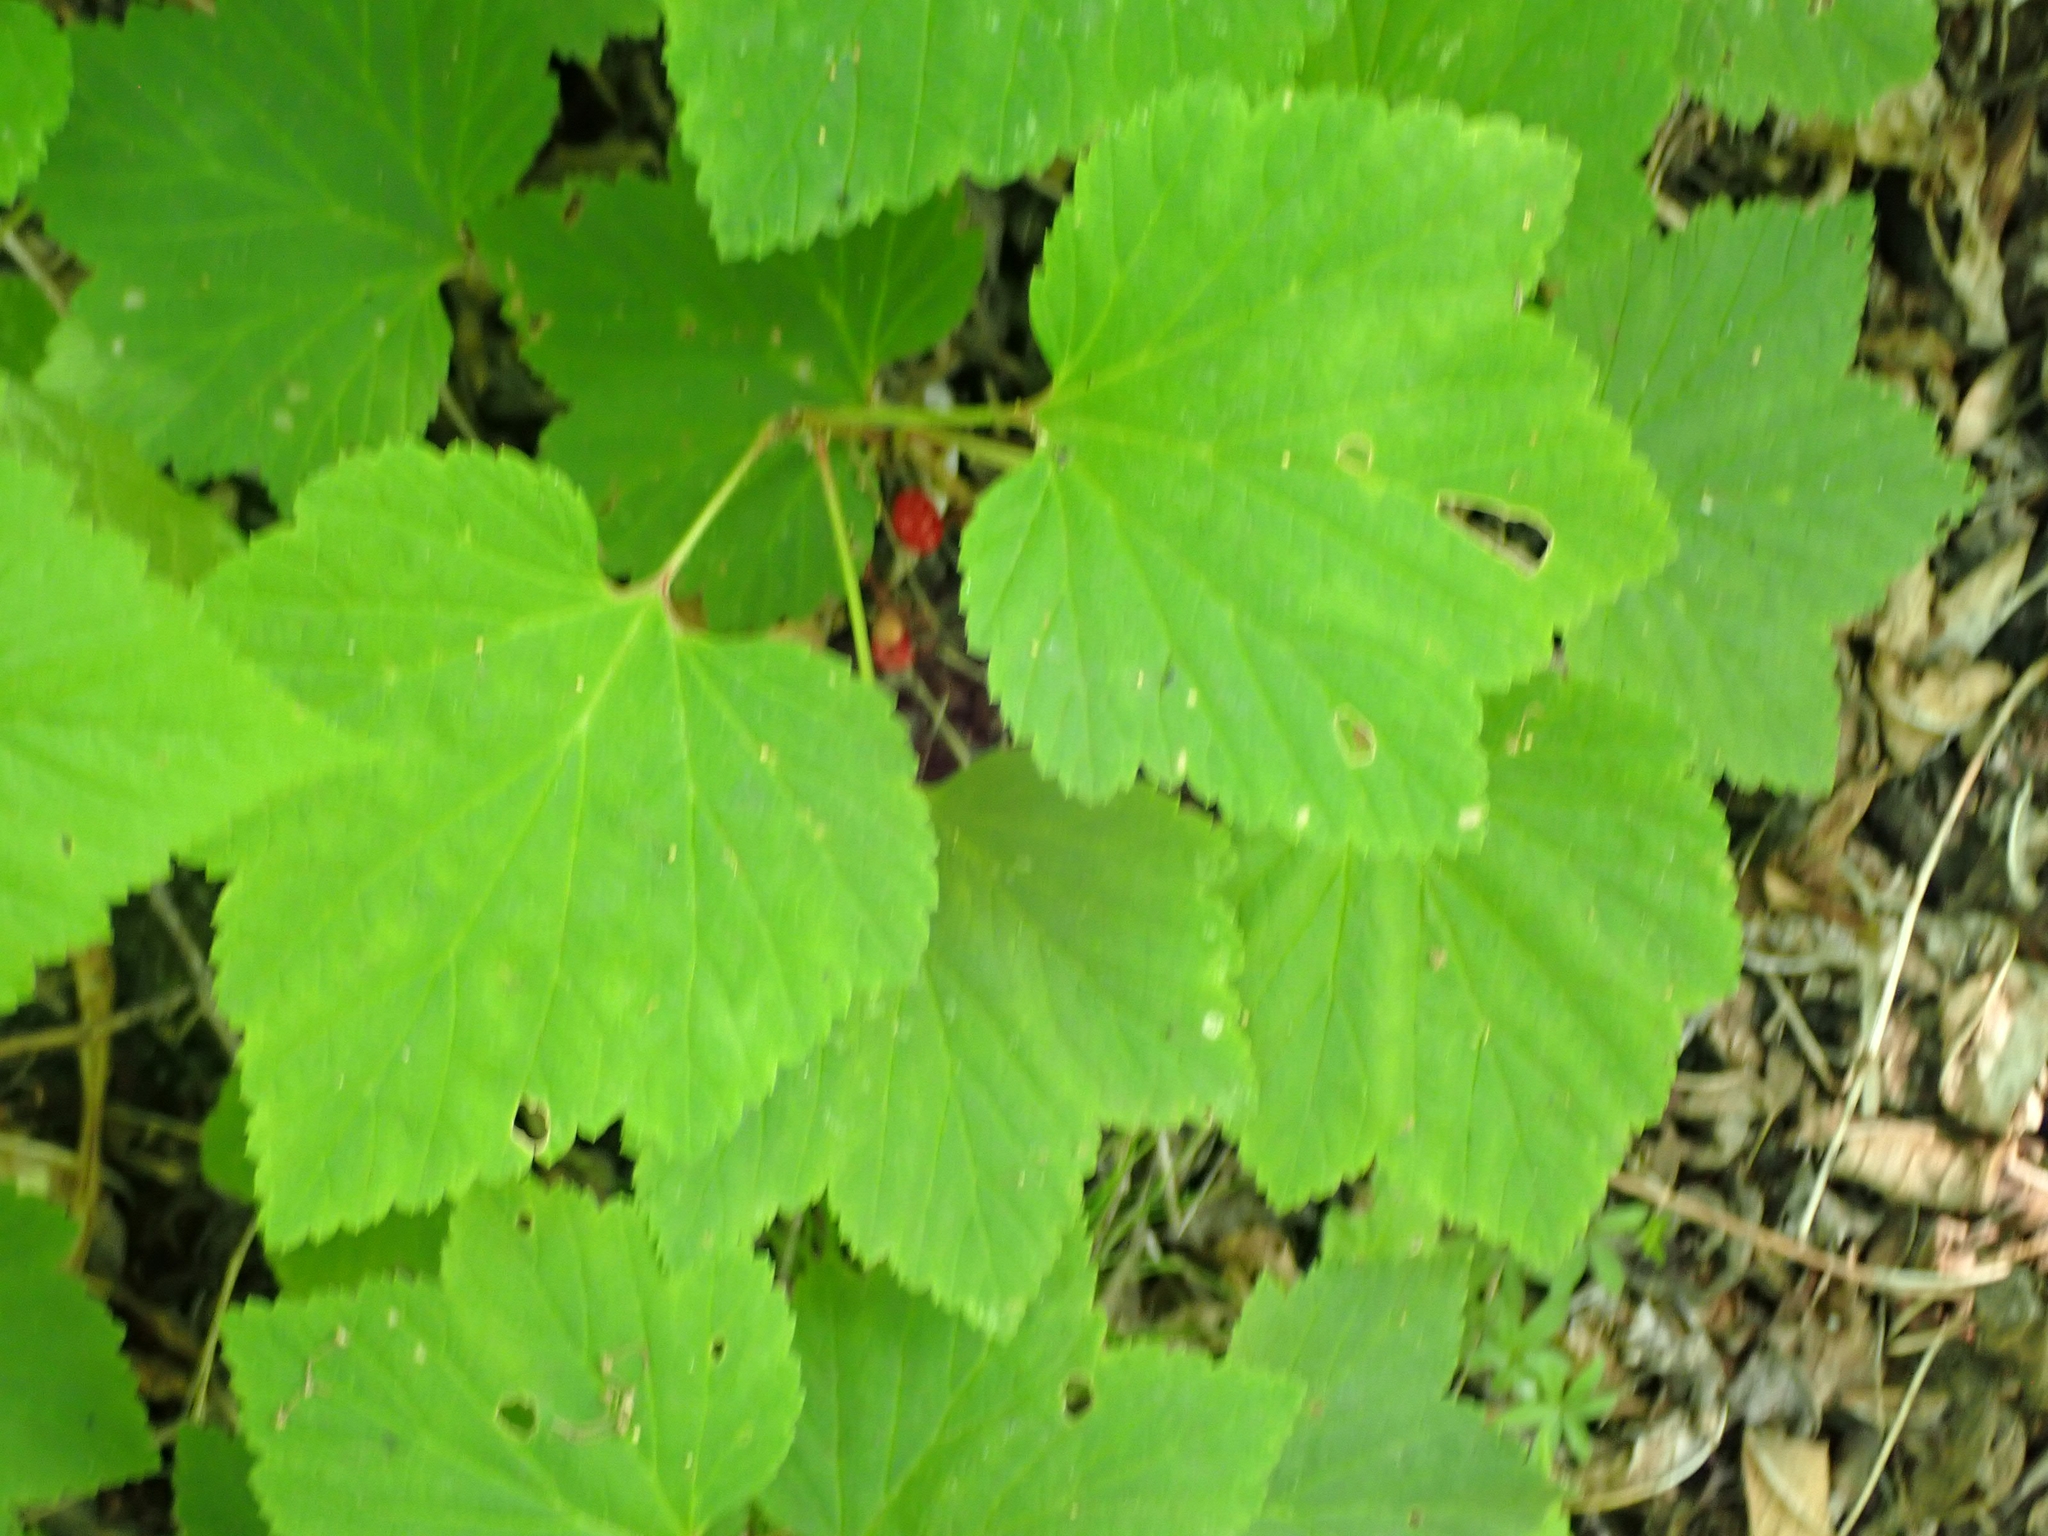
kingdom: Plantae
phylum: Tracheophyta
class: Magnoliopsida
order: Saxifragales
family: Grossulariaceae
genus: Ribes
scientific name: Ribes triste
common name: Swamp red currant
